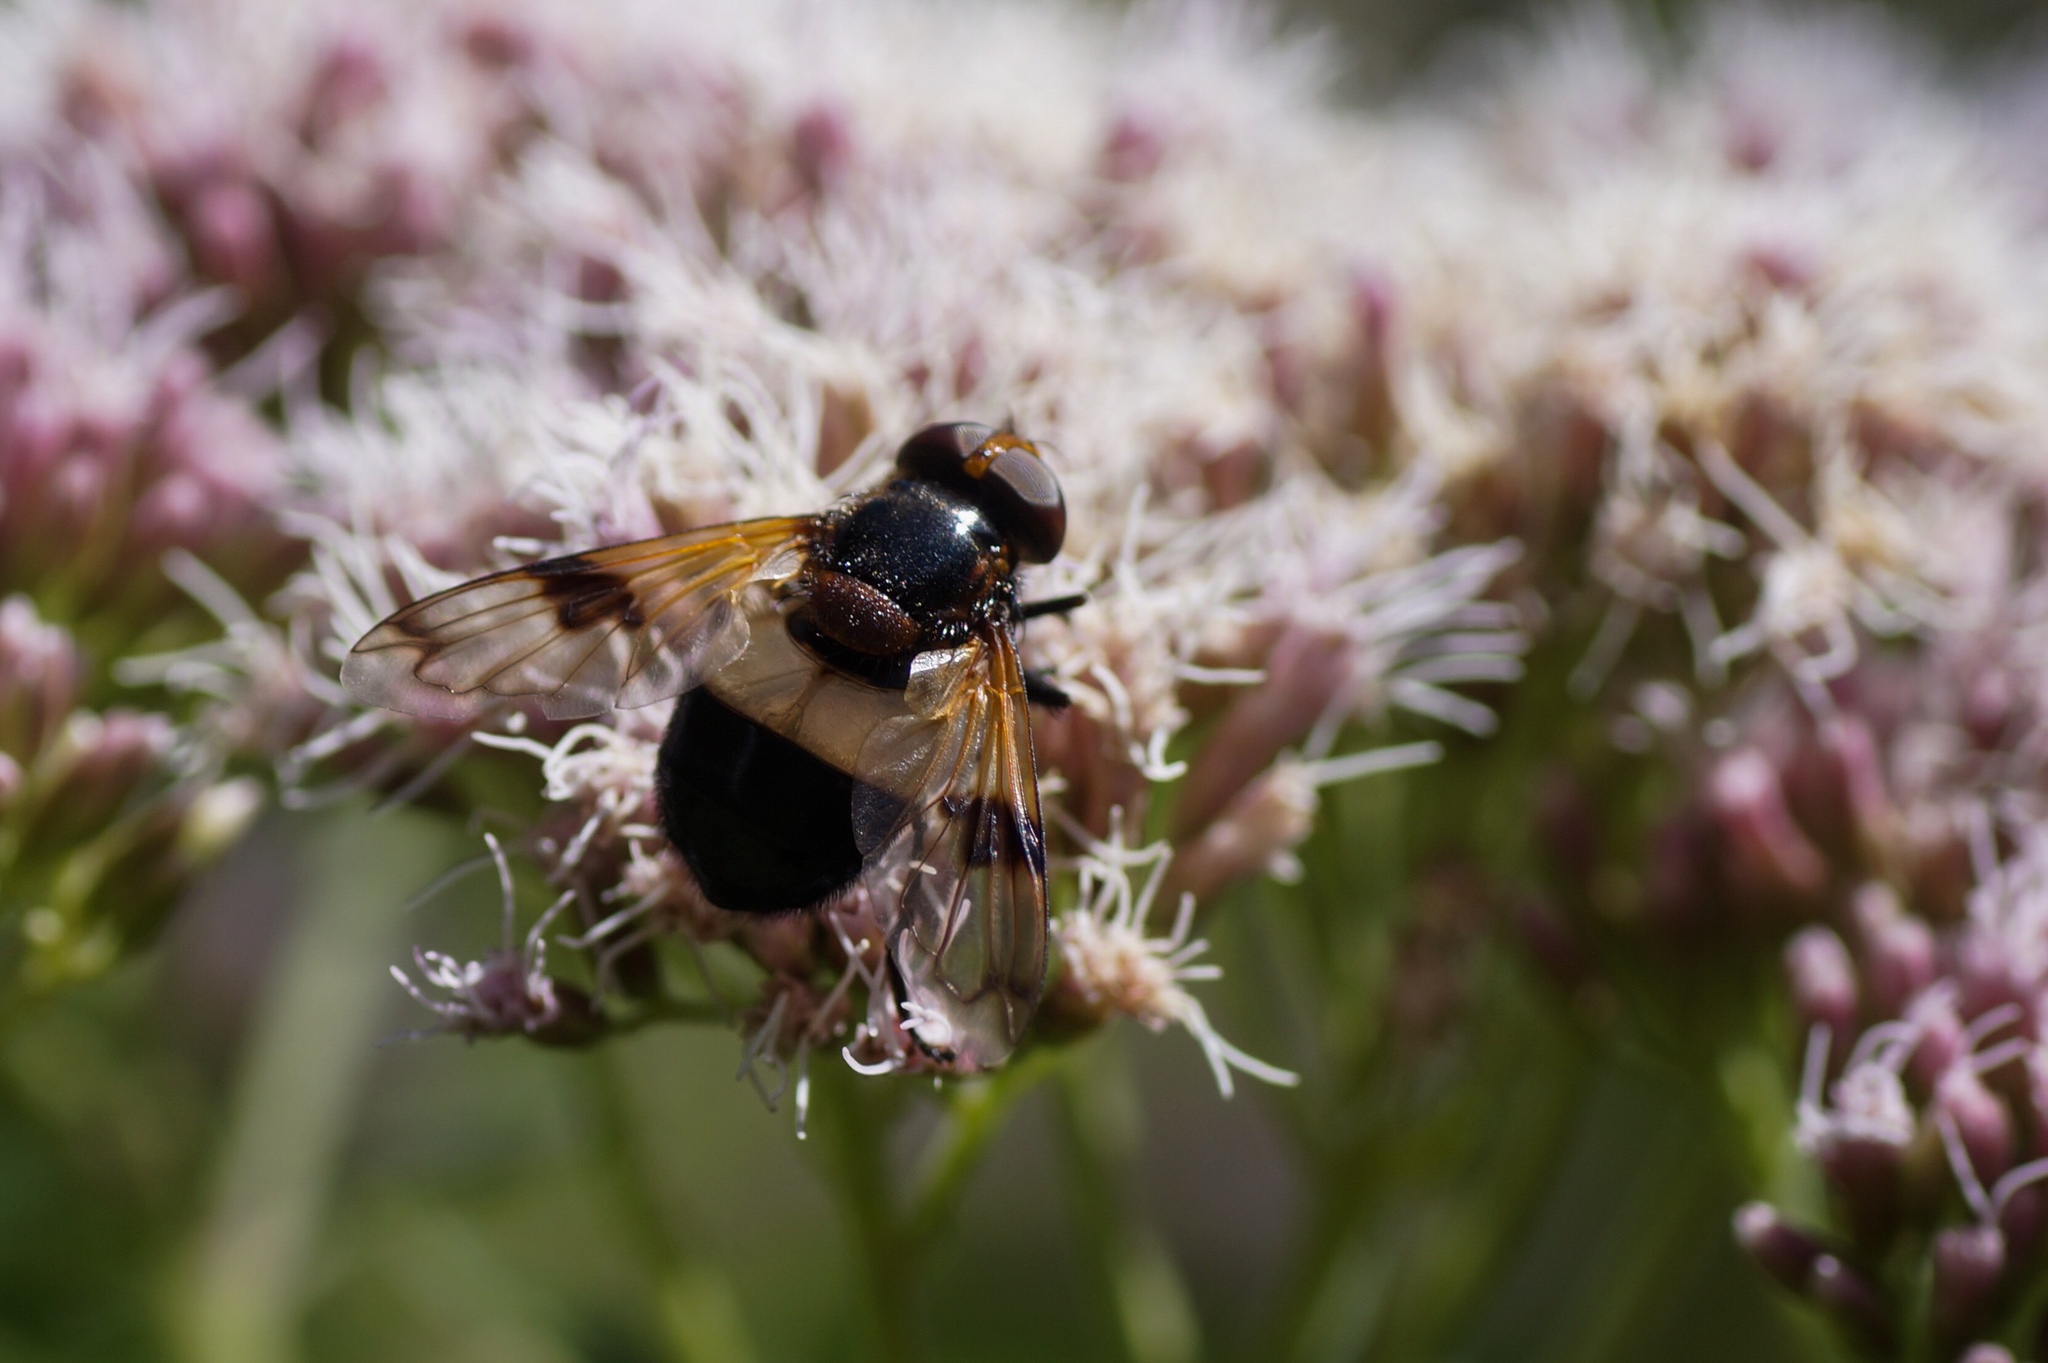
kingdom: Animalia
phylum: Arthropoda
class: Insecta
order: Diptera
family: Syrphidae
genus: Volucella
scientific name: Volucella pellucens
